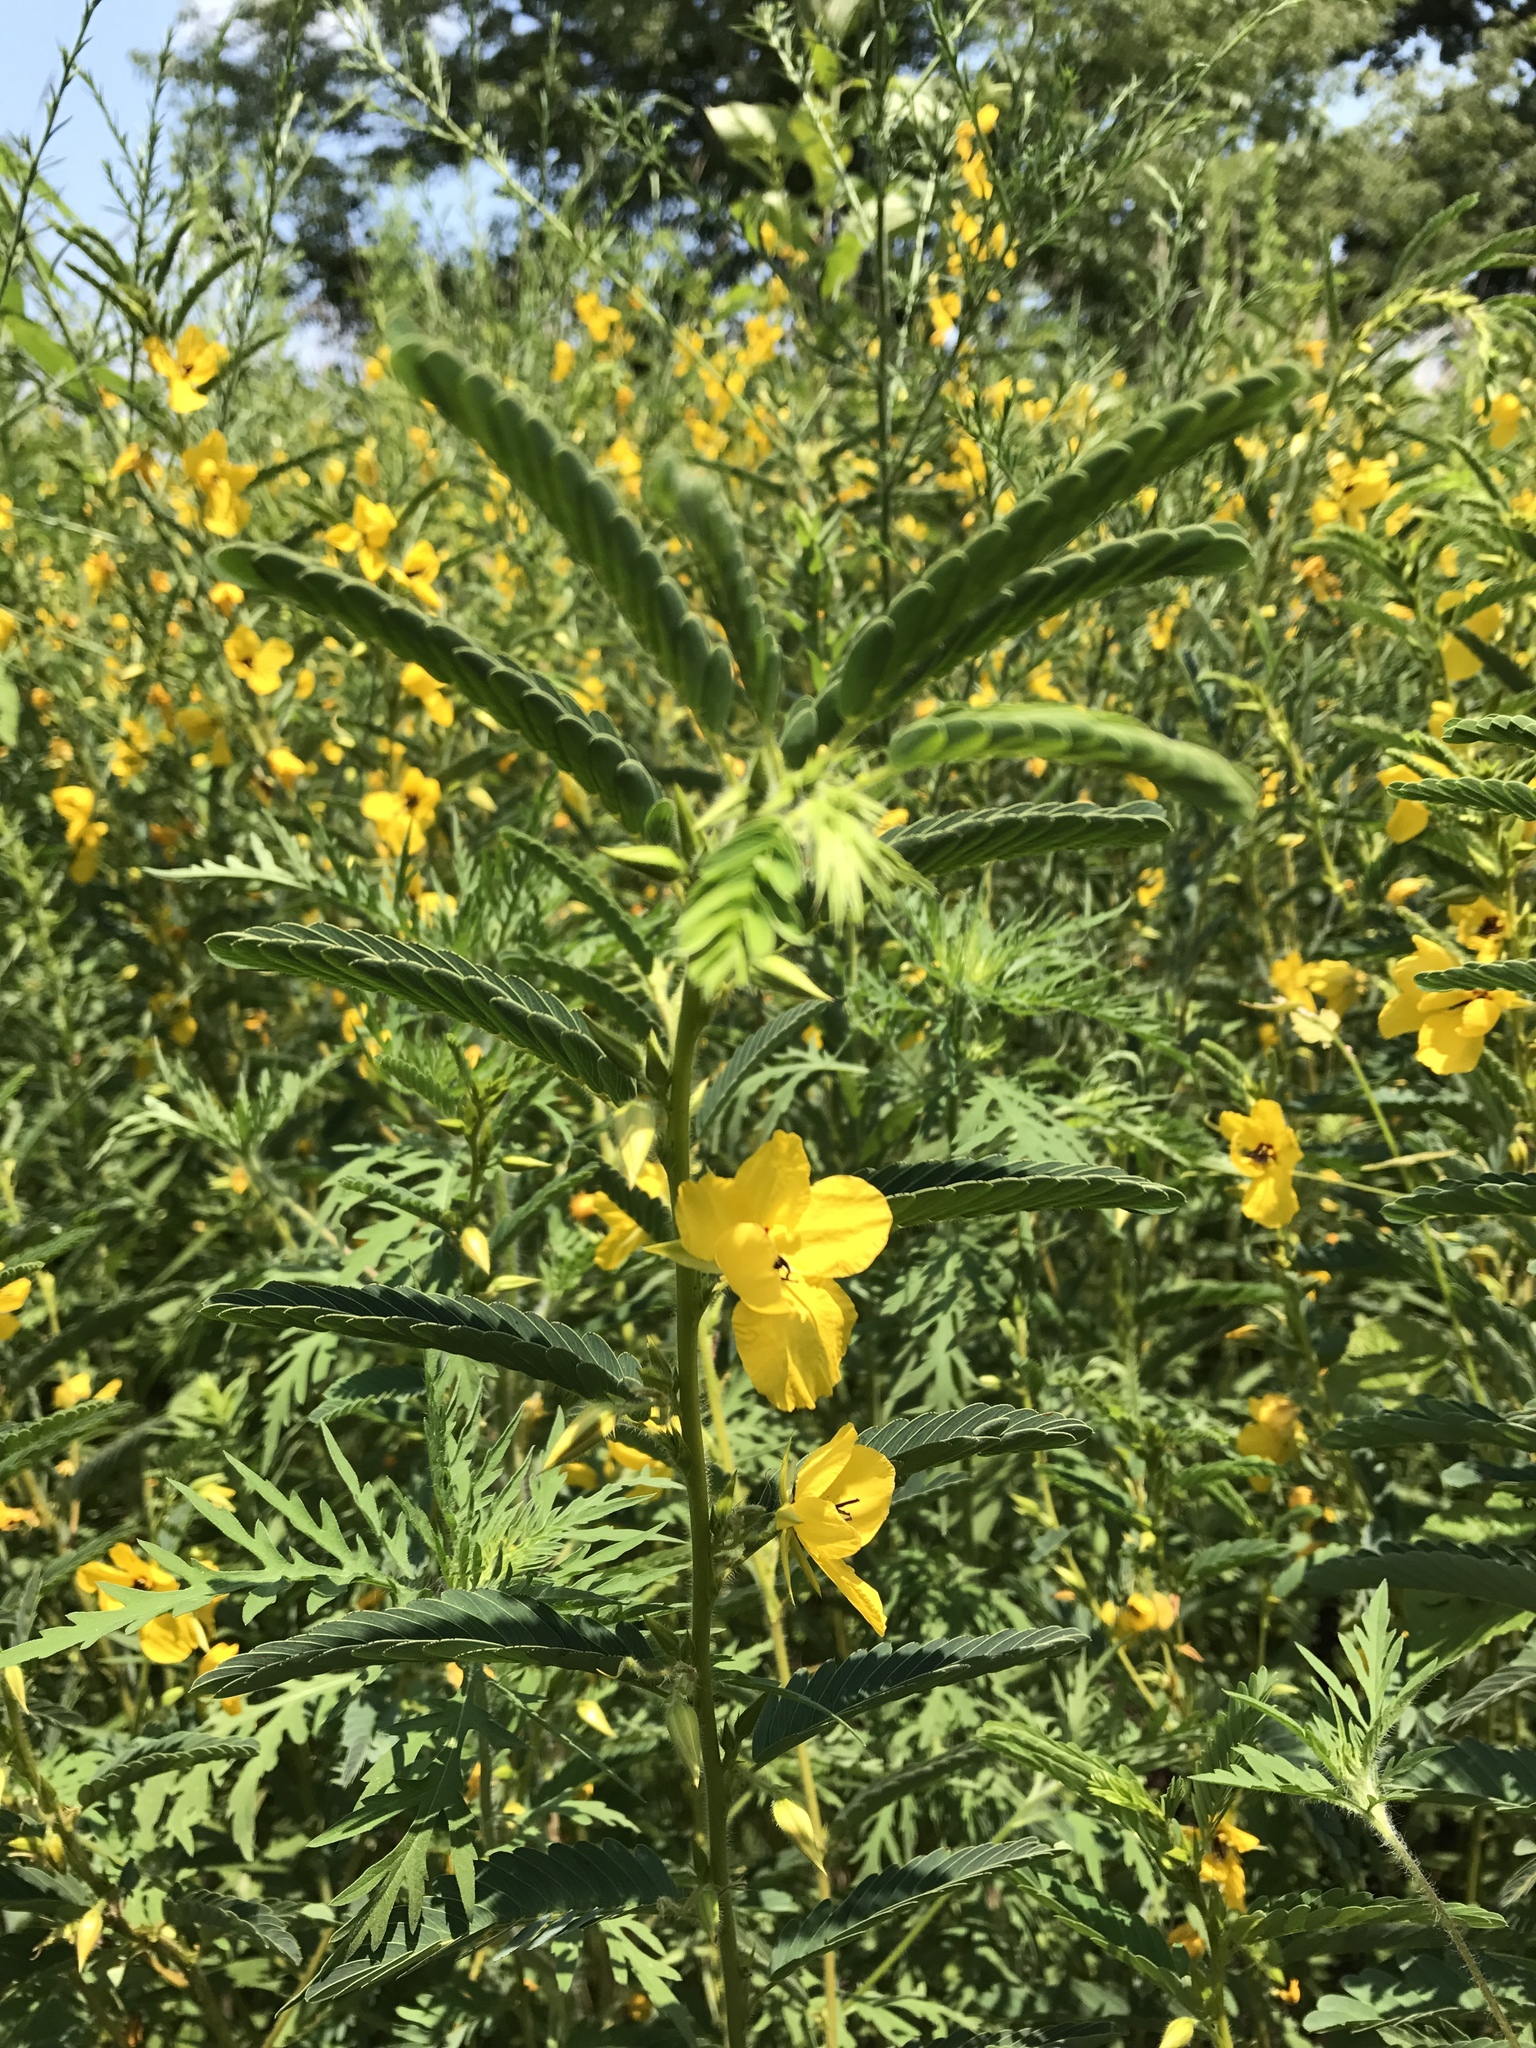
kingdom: Plantae
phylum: Tracheophyta
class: Magnoliopsida
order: Fabales
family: Fabaceae
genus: Chamaecrista
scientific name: Chamaecrista fasciculata
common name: Golden cassia
